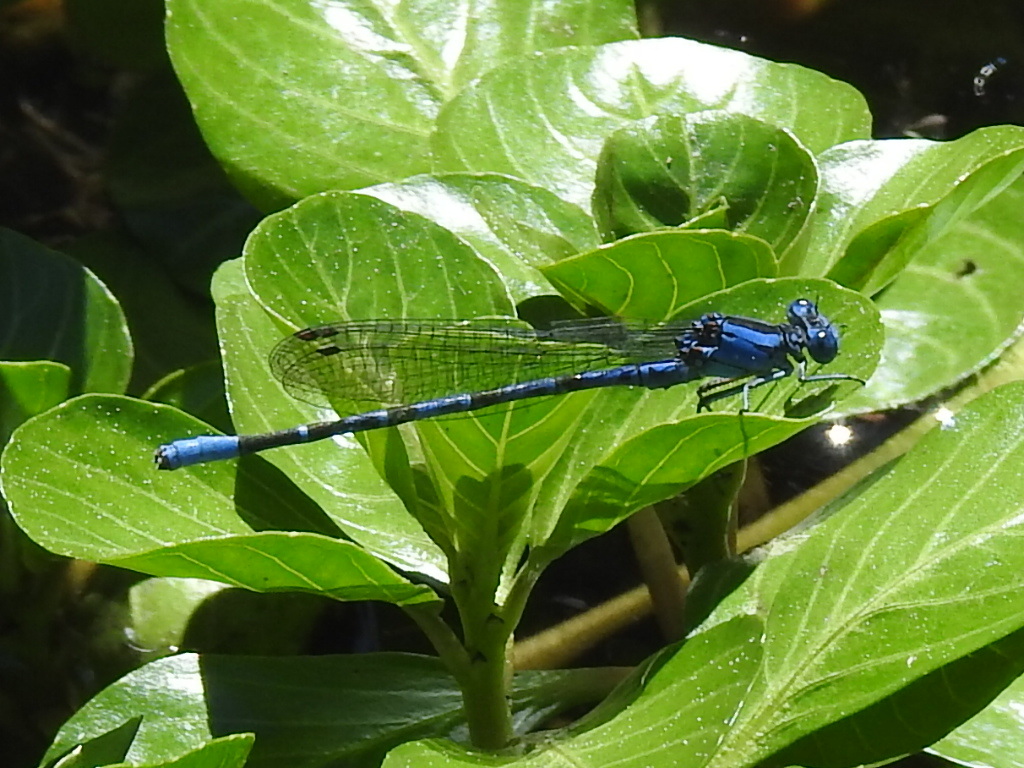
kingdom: Animalia
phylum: Arthropoda
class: Insecta
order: Odonata
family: Coenagrionidae
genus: Argia
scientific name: Argia vivida
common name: Vivid dancer
